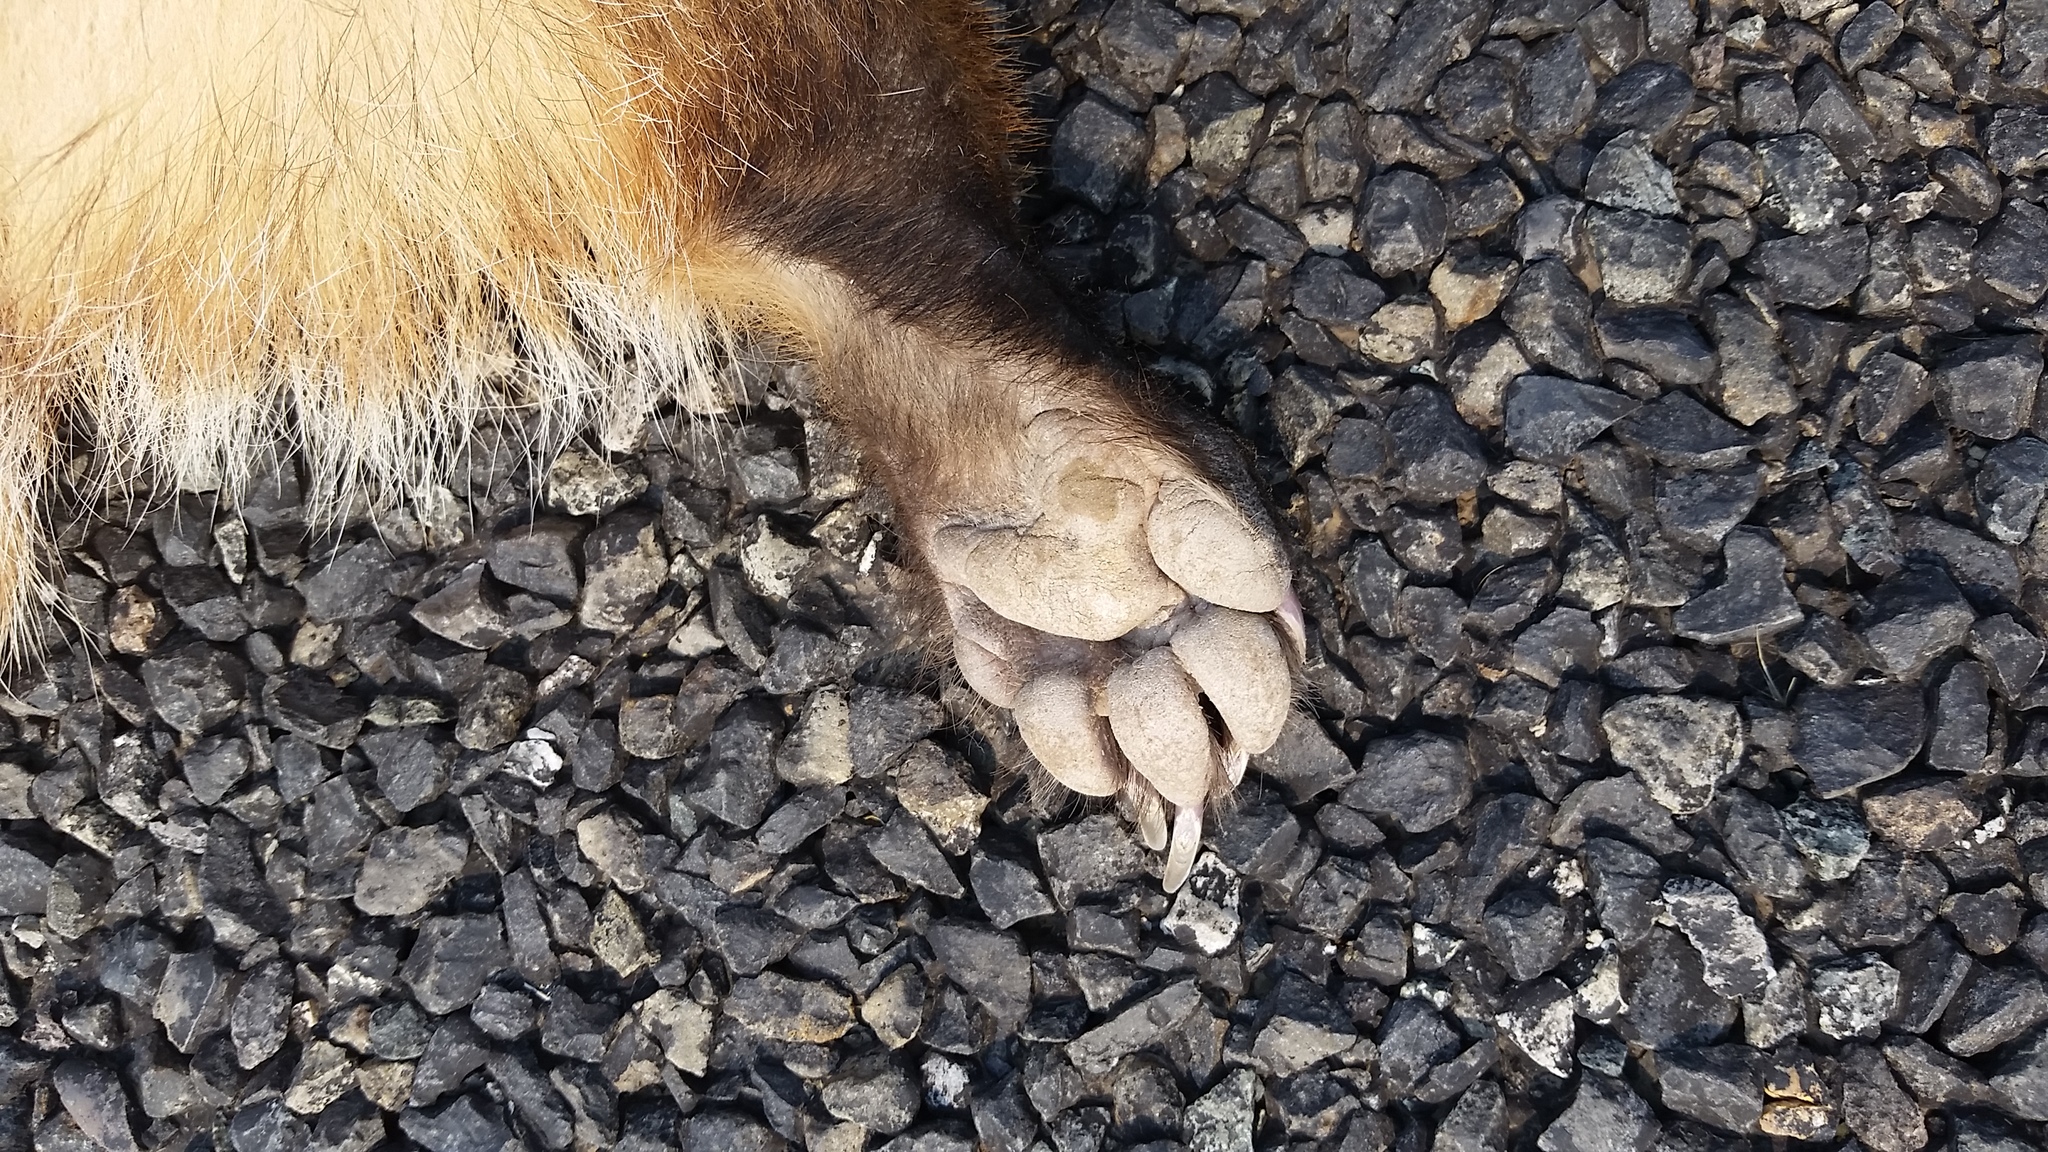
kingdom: Animalia
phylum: Chordata
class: Mammalia
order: Carnivora
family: Mustelidae
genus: Taxidea
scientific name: Taxidea taxus
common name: American badger
